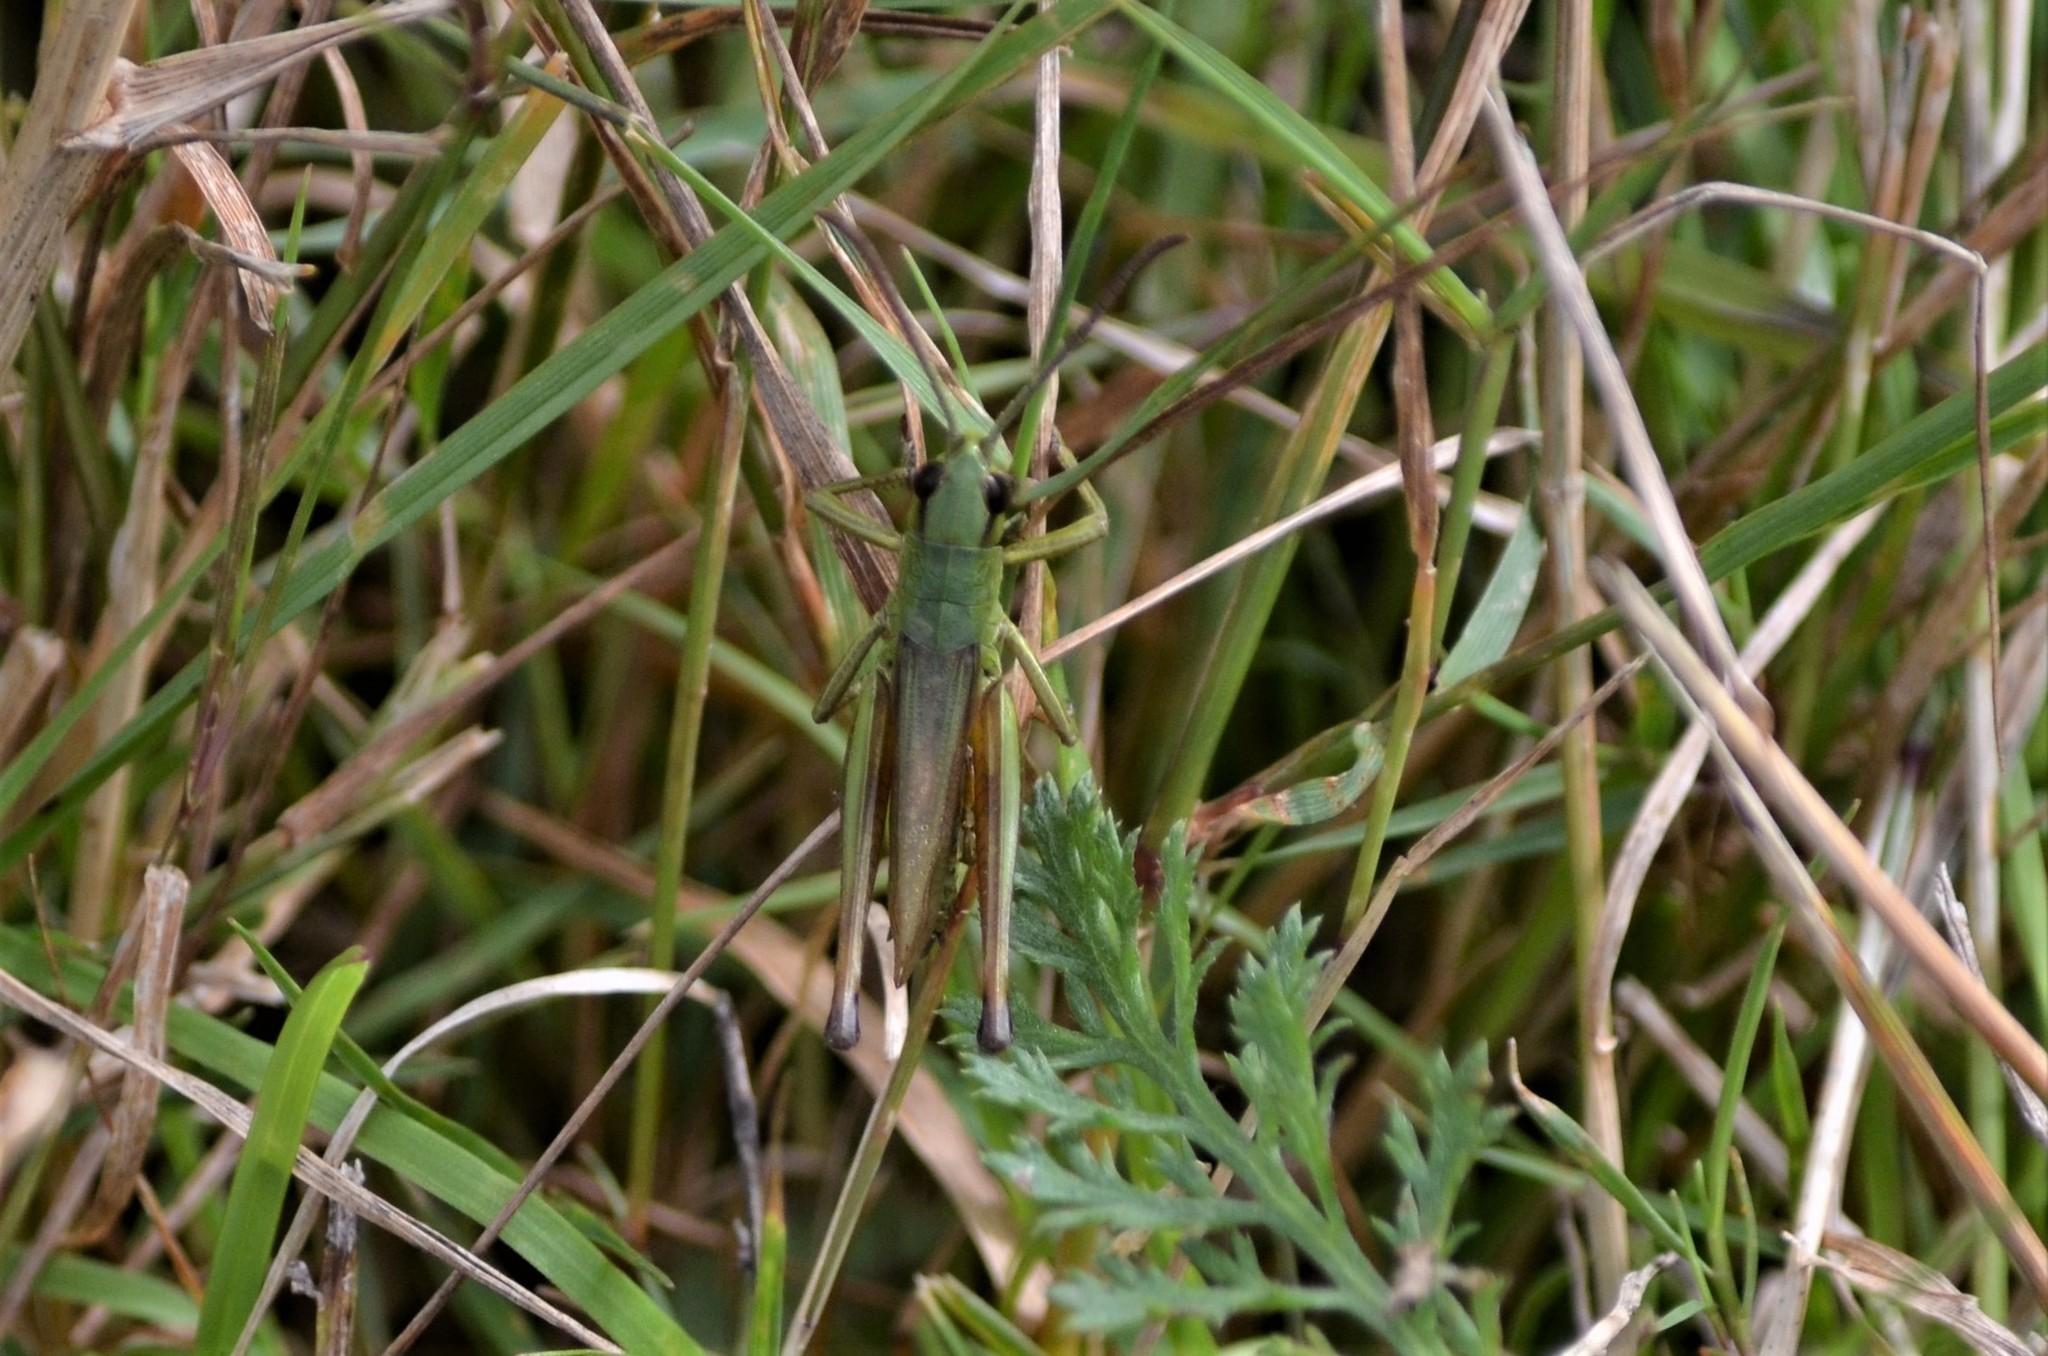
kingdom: Animalia
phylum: Arthropoda
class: Insecta
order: Orthoptera
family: Acrididae
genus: Pseudochorthippus
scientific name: Pseudochorthippus parallelus
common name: Meadow grasshopper
